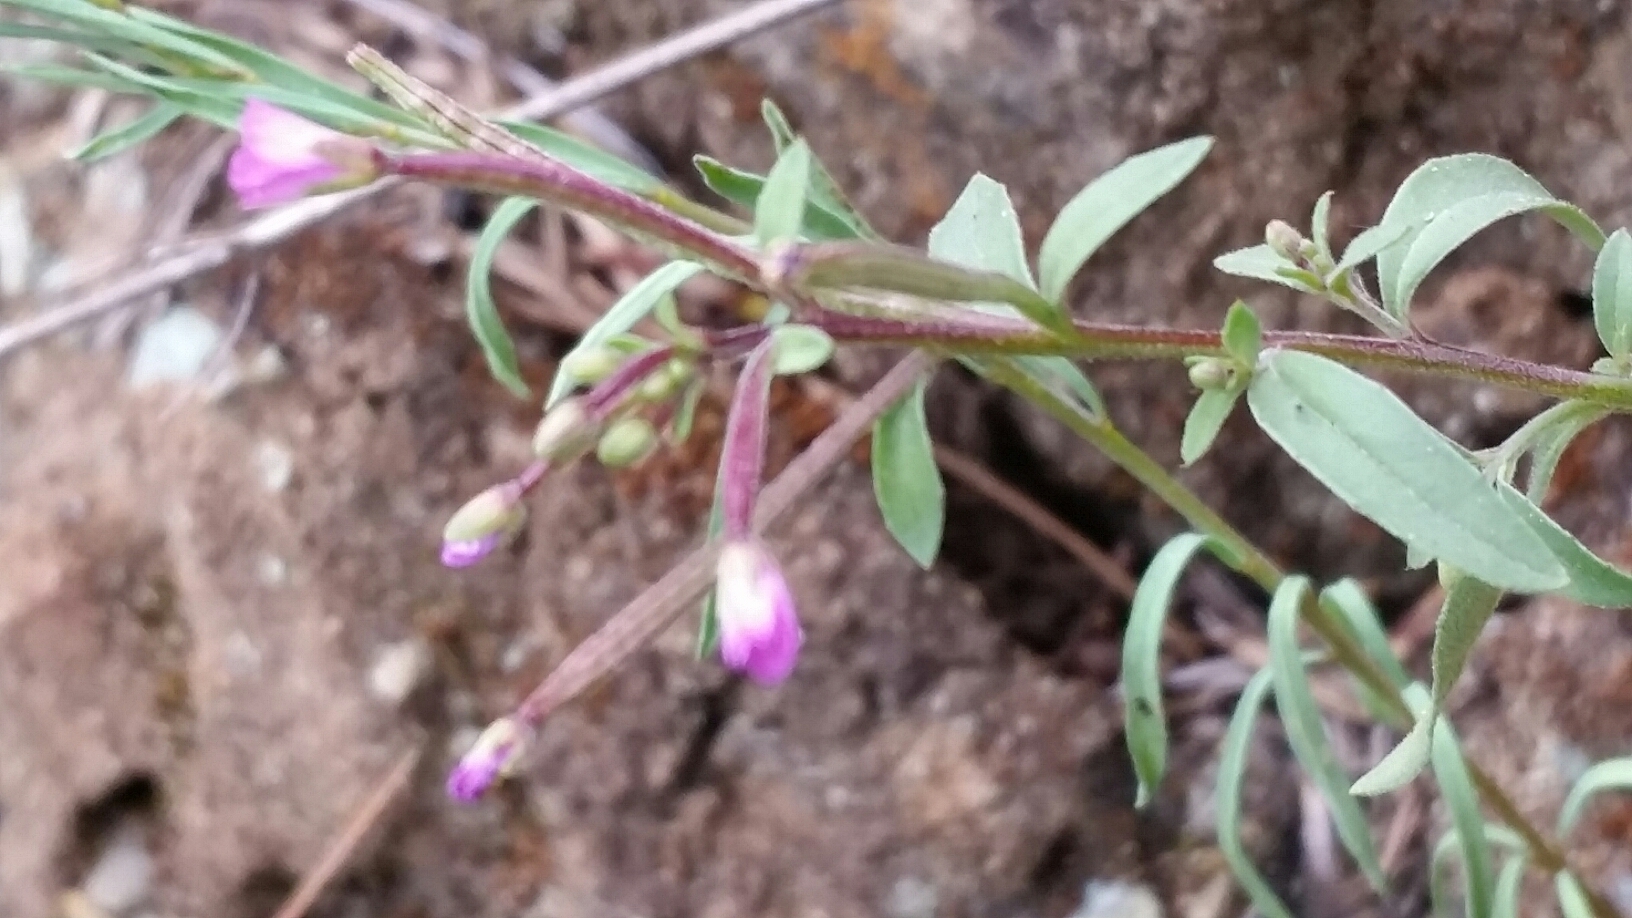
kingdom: Plantae
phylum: Tracheophyta
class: Magnoliopsida
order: Myrtales
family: Onagraceae
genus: Epilobium
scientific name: Epilobium minutum
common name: Chaparral willowherb
